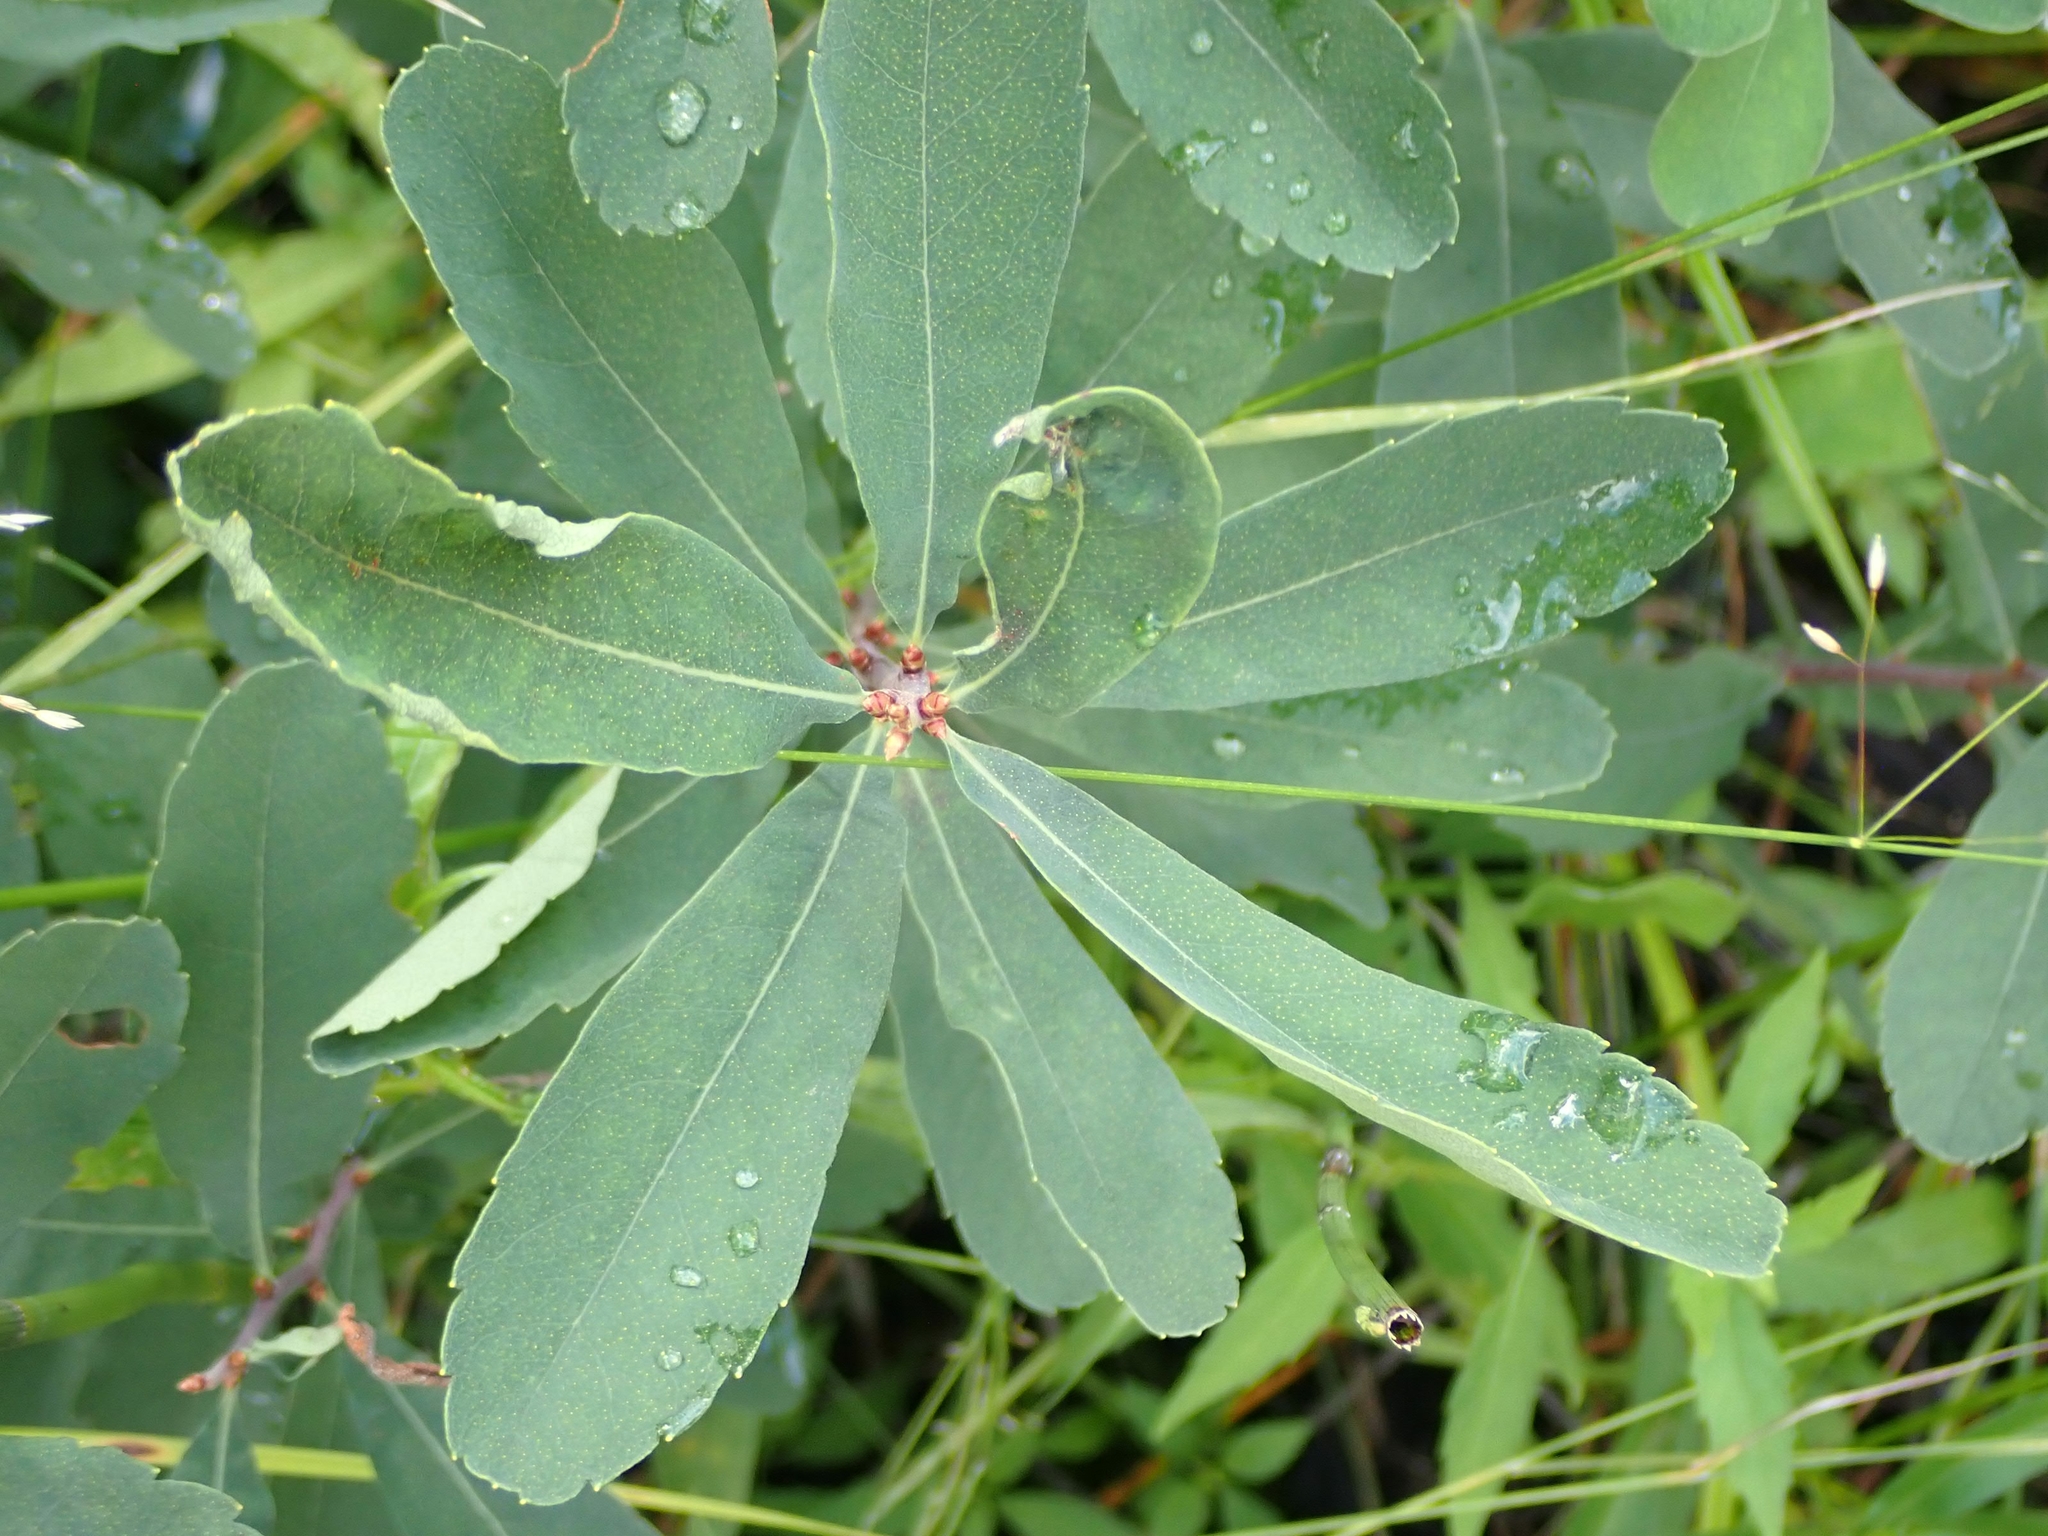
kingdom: Plantae
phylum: Tracheophyta
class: Magnoliopsida
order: Fagales
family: Myricaceae
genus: Myrica
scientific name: Myrica gale
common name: Sweet gale
